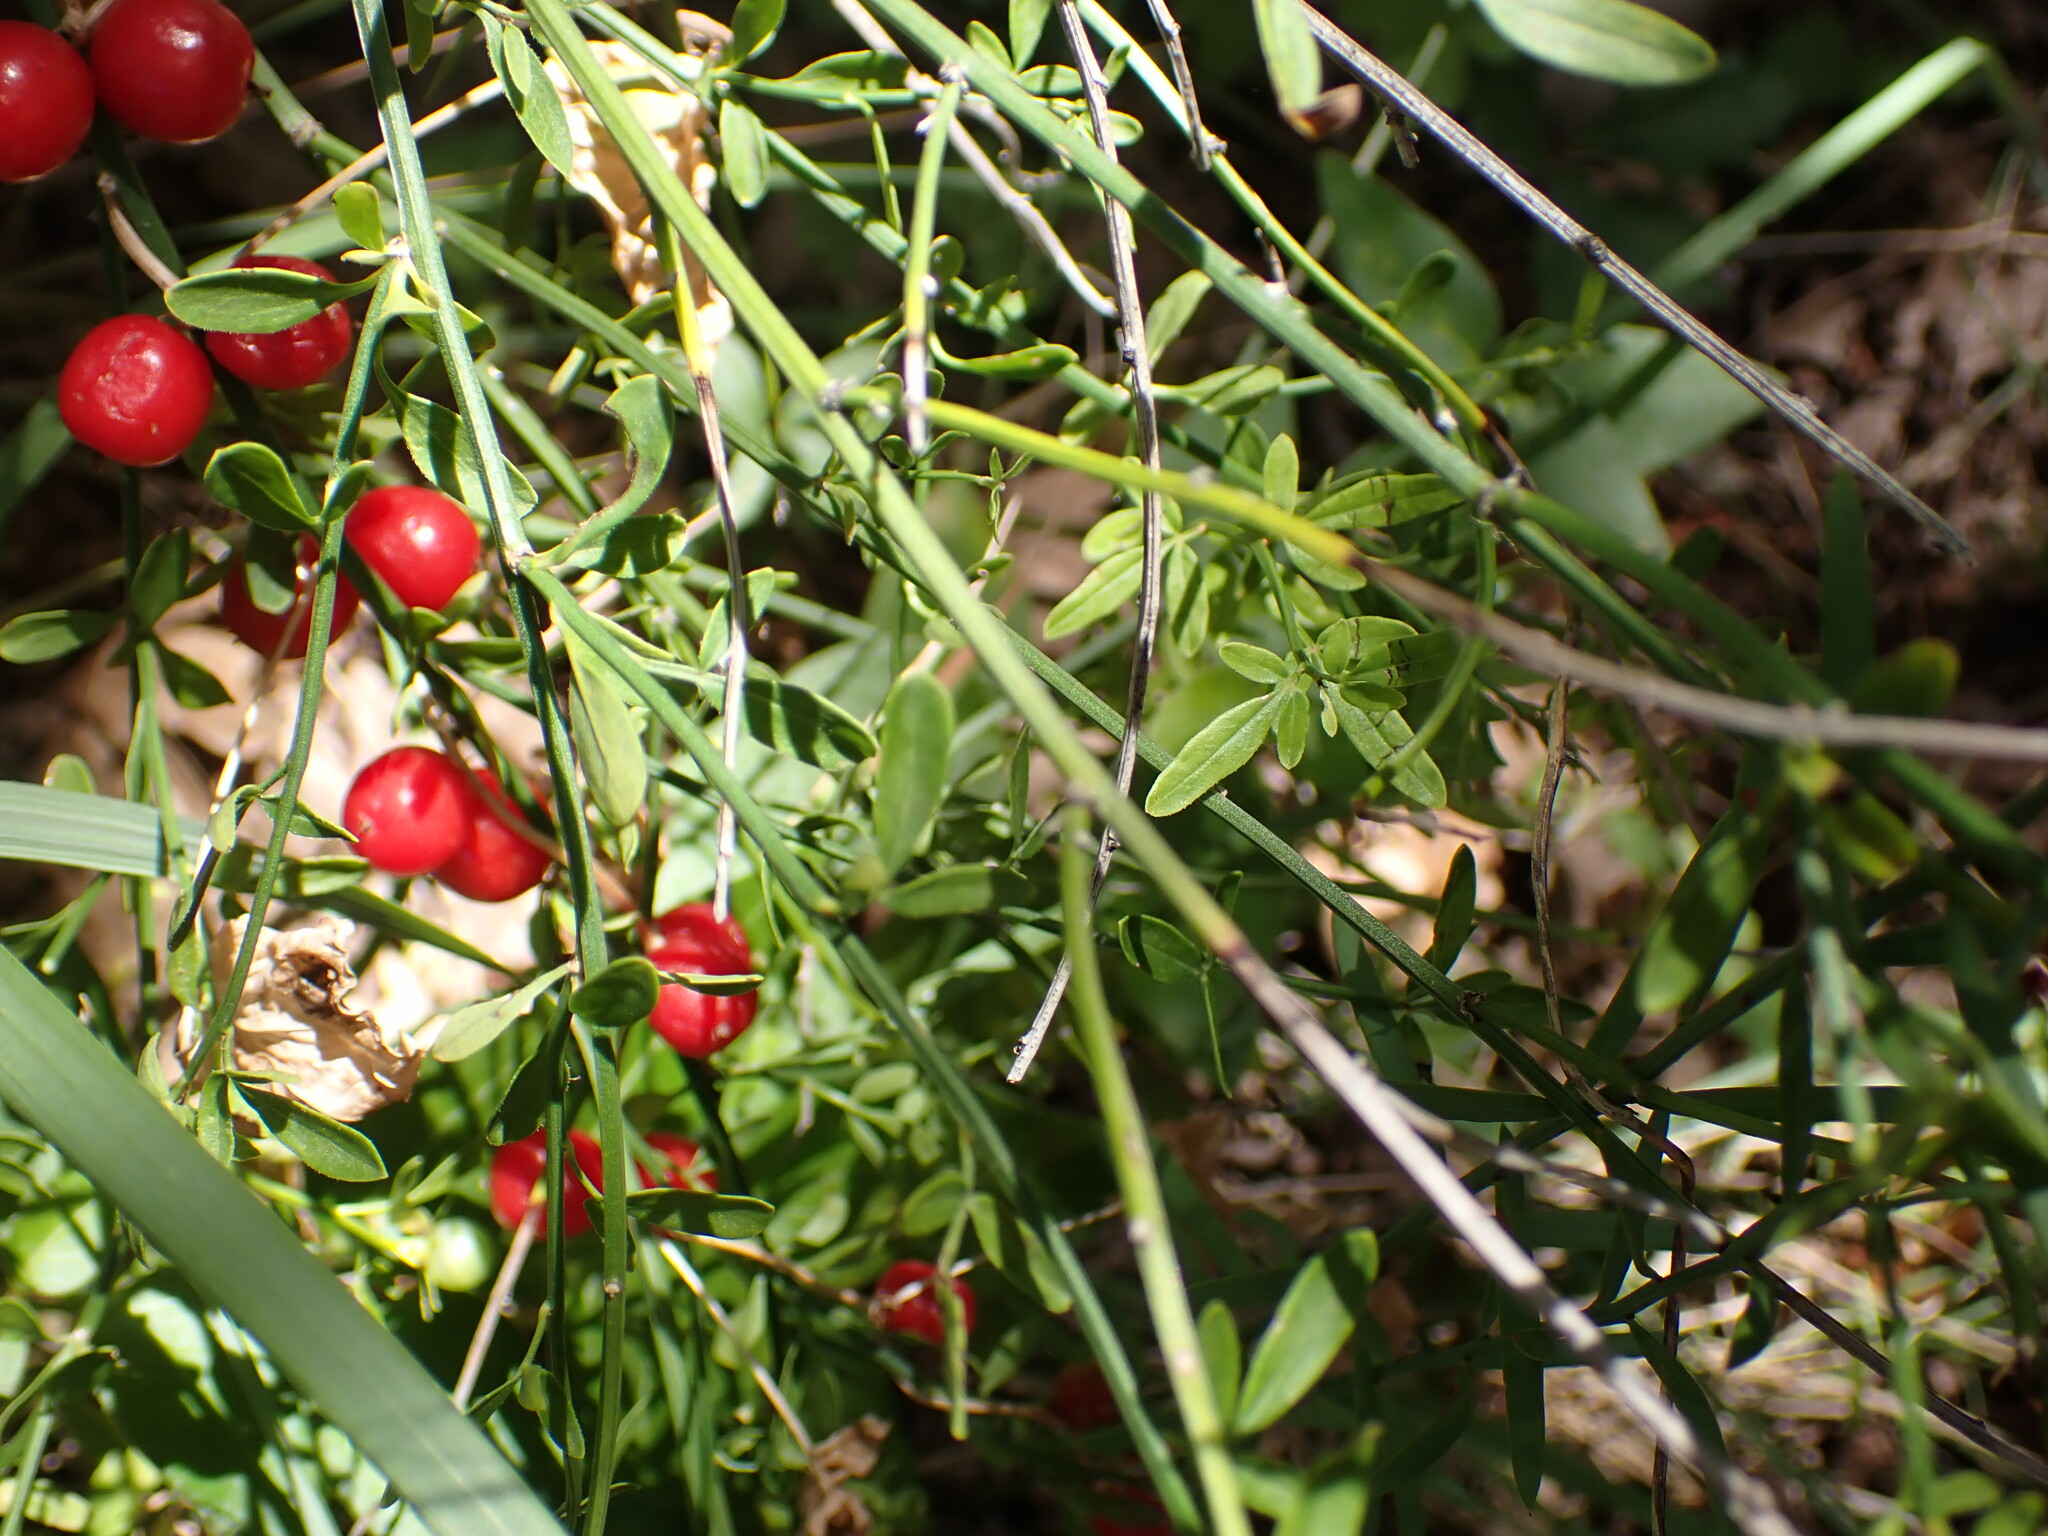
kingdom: Plantae
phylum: Tracheophyta
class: Liliopsida
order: Dioscoreales
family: Dioscoreaceae
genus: Dioscorea
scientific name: Dioscorea communis
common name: Black-bindweed
